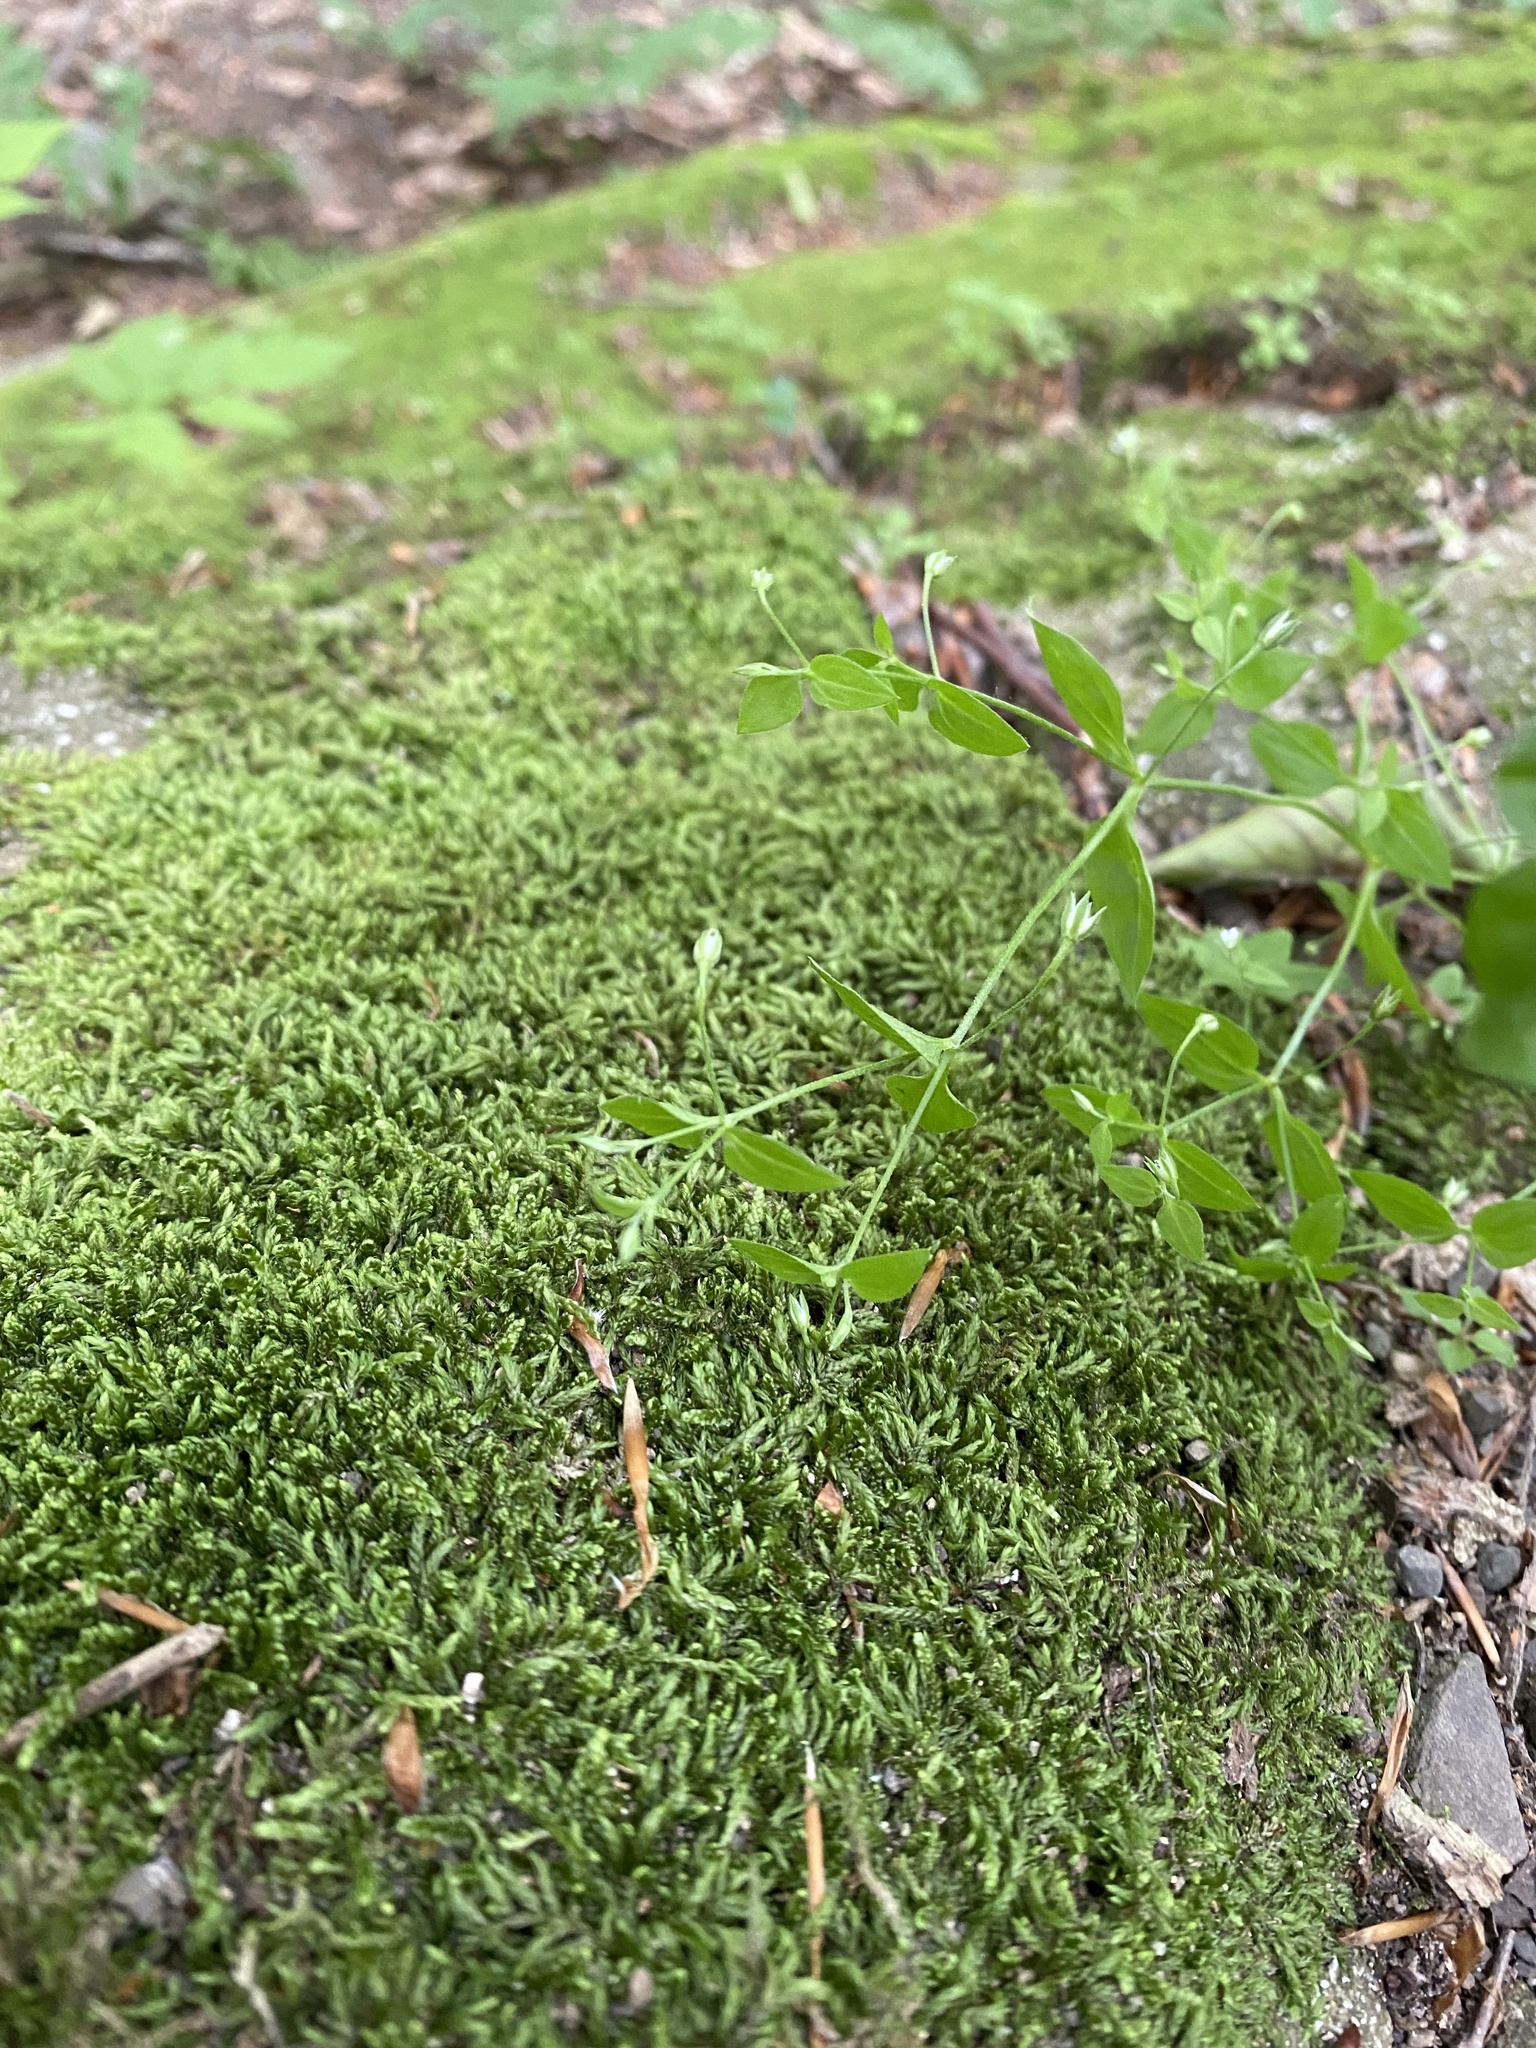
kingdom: Plantae
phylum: Tracheophyta
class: Magnoliopsida
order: Caryophyllales
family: Caryophyllaceae
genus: Moehringia
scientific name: Moehringia trinervia
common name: Three-nerved sandwort
